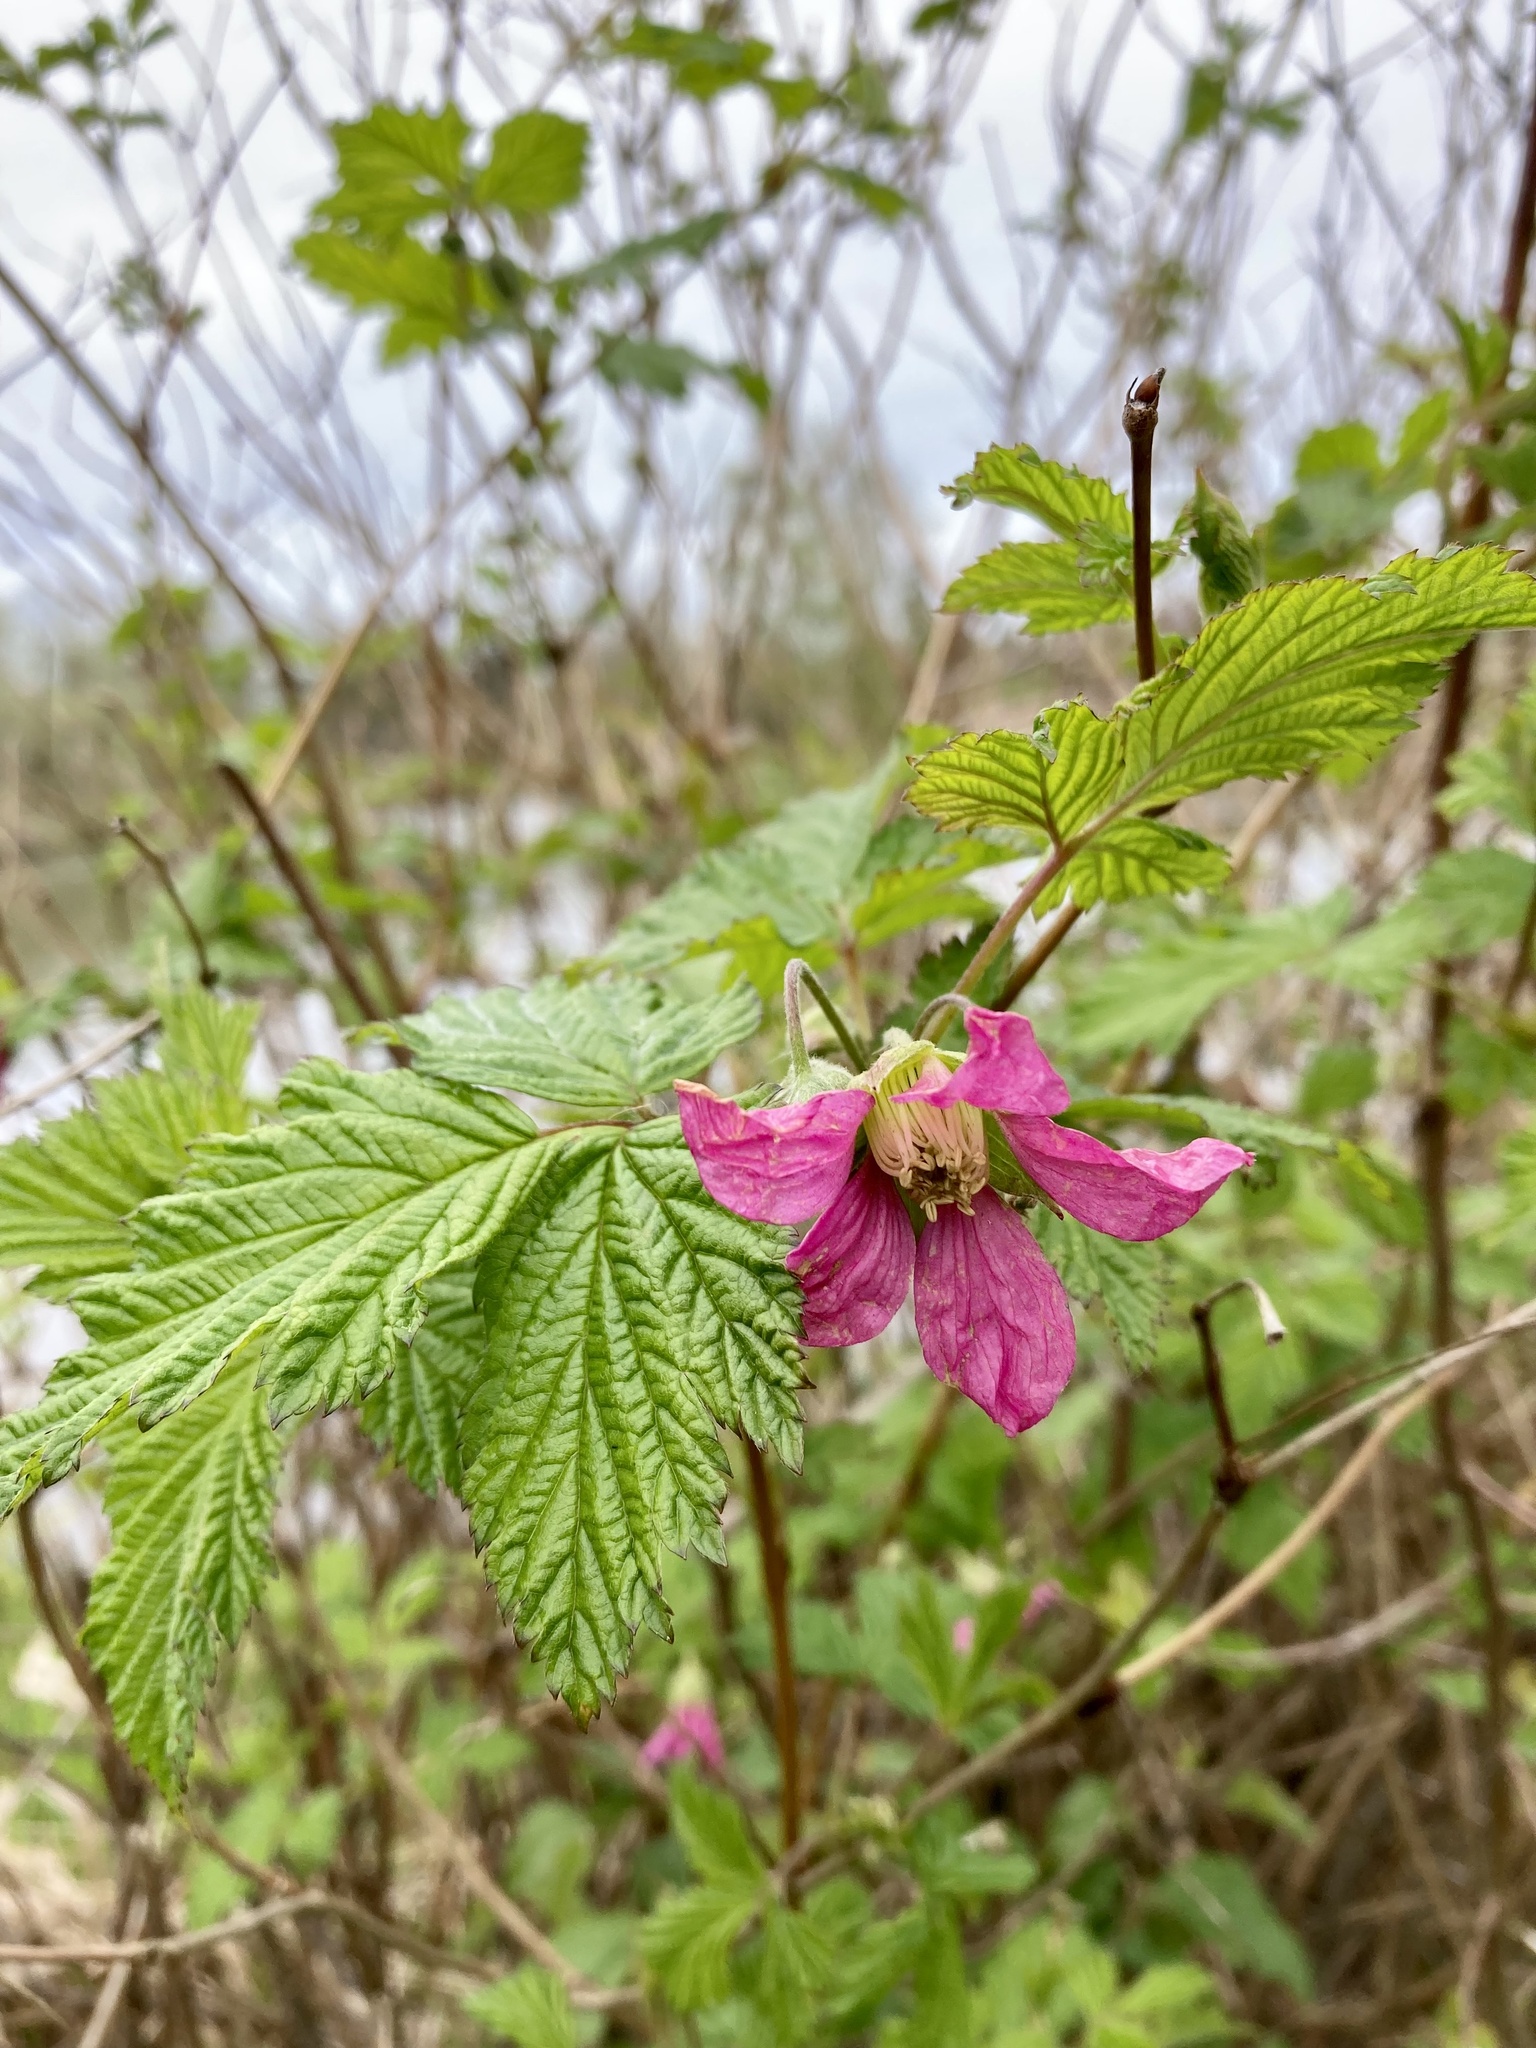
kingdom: Plantae
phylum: Tracheophyta
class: Magnoliopsida
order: Rosales
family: Rosaceae
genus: Rubus
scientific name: Rubus spectabilis
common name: Salmonberry
